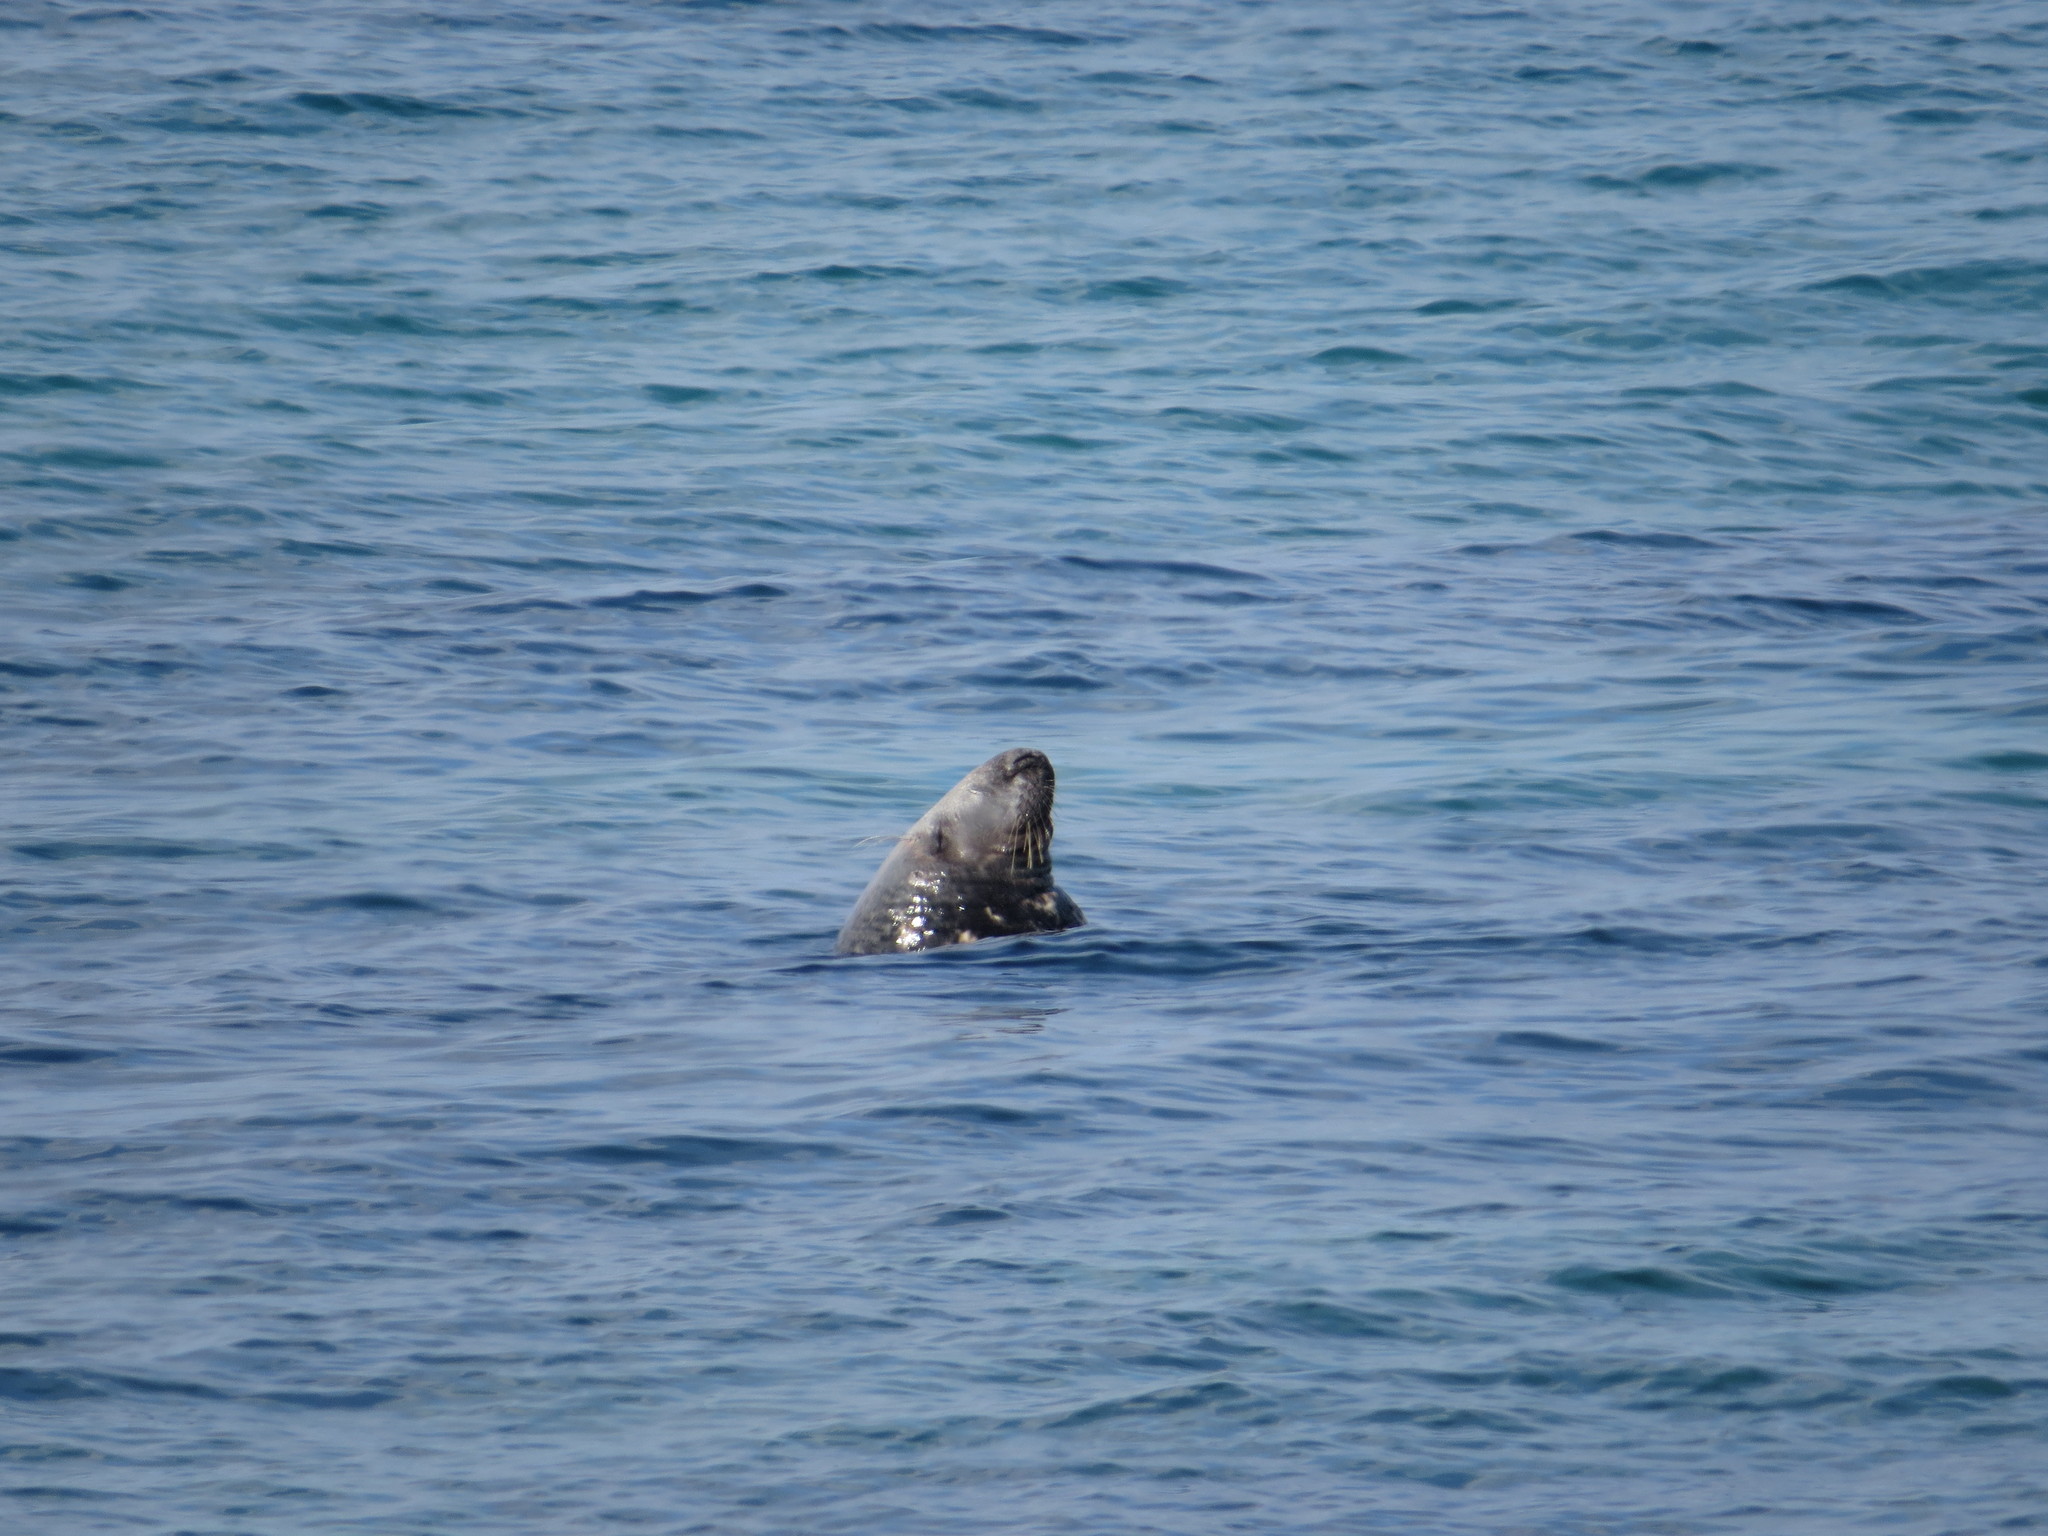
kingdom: Animalia
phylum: Chordata
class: Mammalia
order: Carnivora
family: Phocidae
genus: Halichoerus
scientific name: Halichoerus grypus
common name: Grey seal
